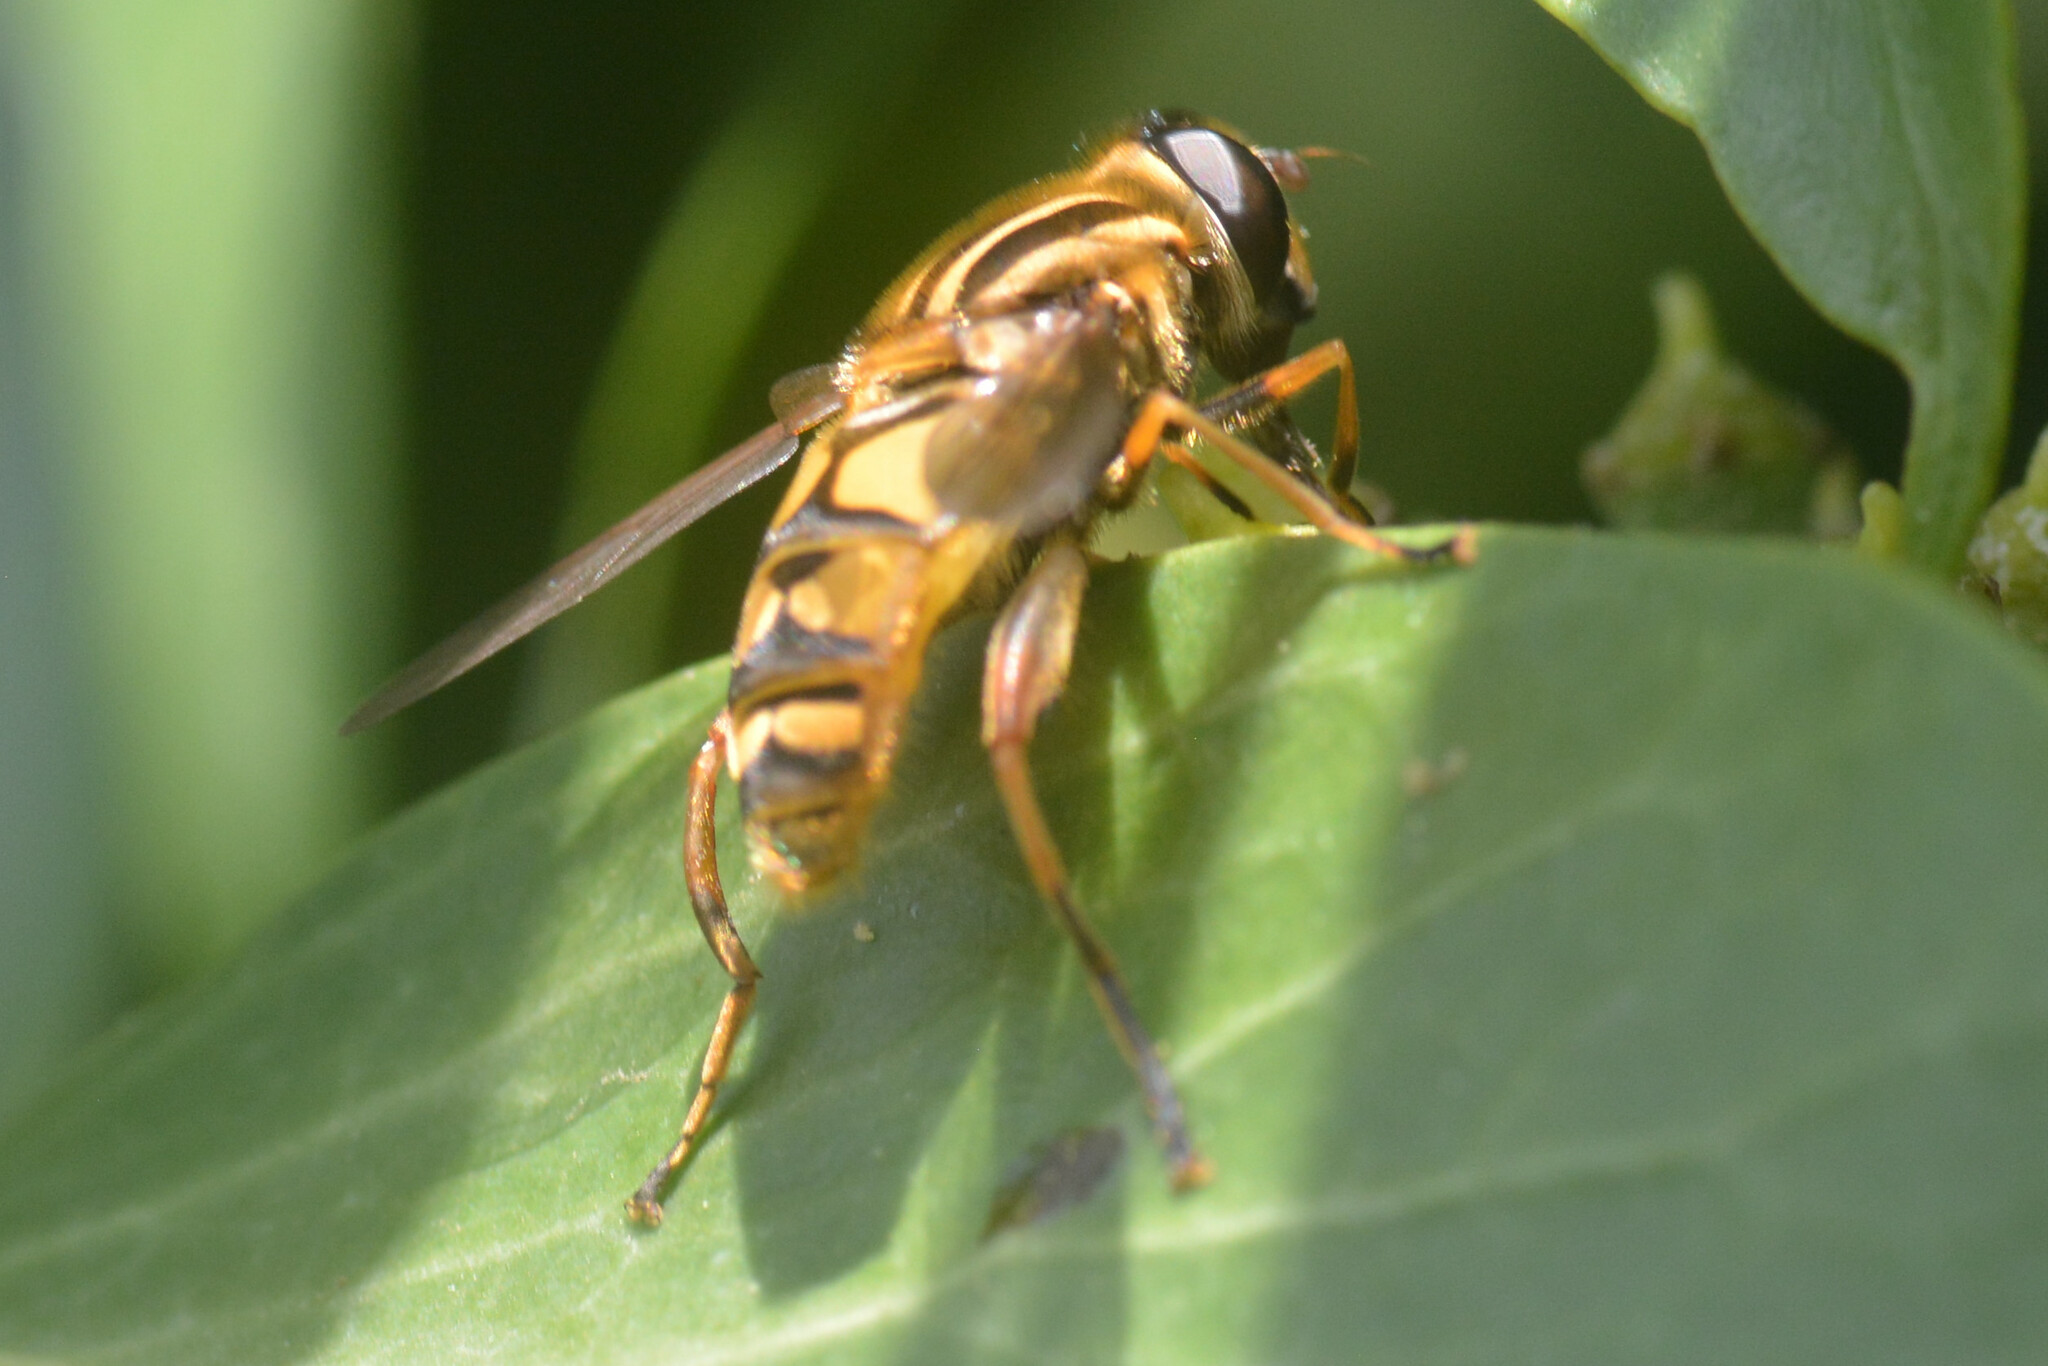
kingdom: Animalia
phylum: Arthropoda
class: Insecta
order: Diptera
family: Syrphidae
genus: Helophilus
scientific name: Helophilus pendulus
